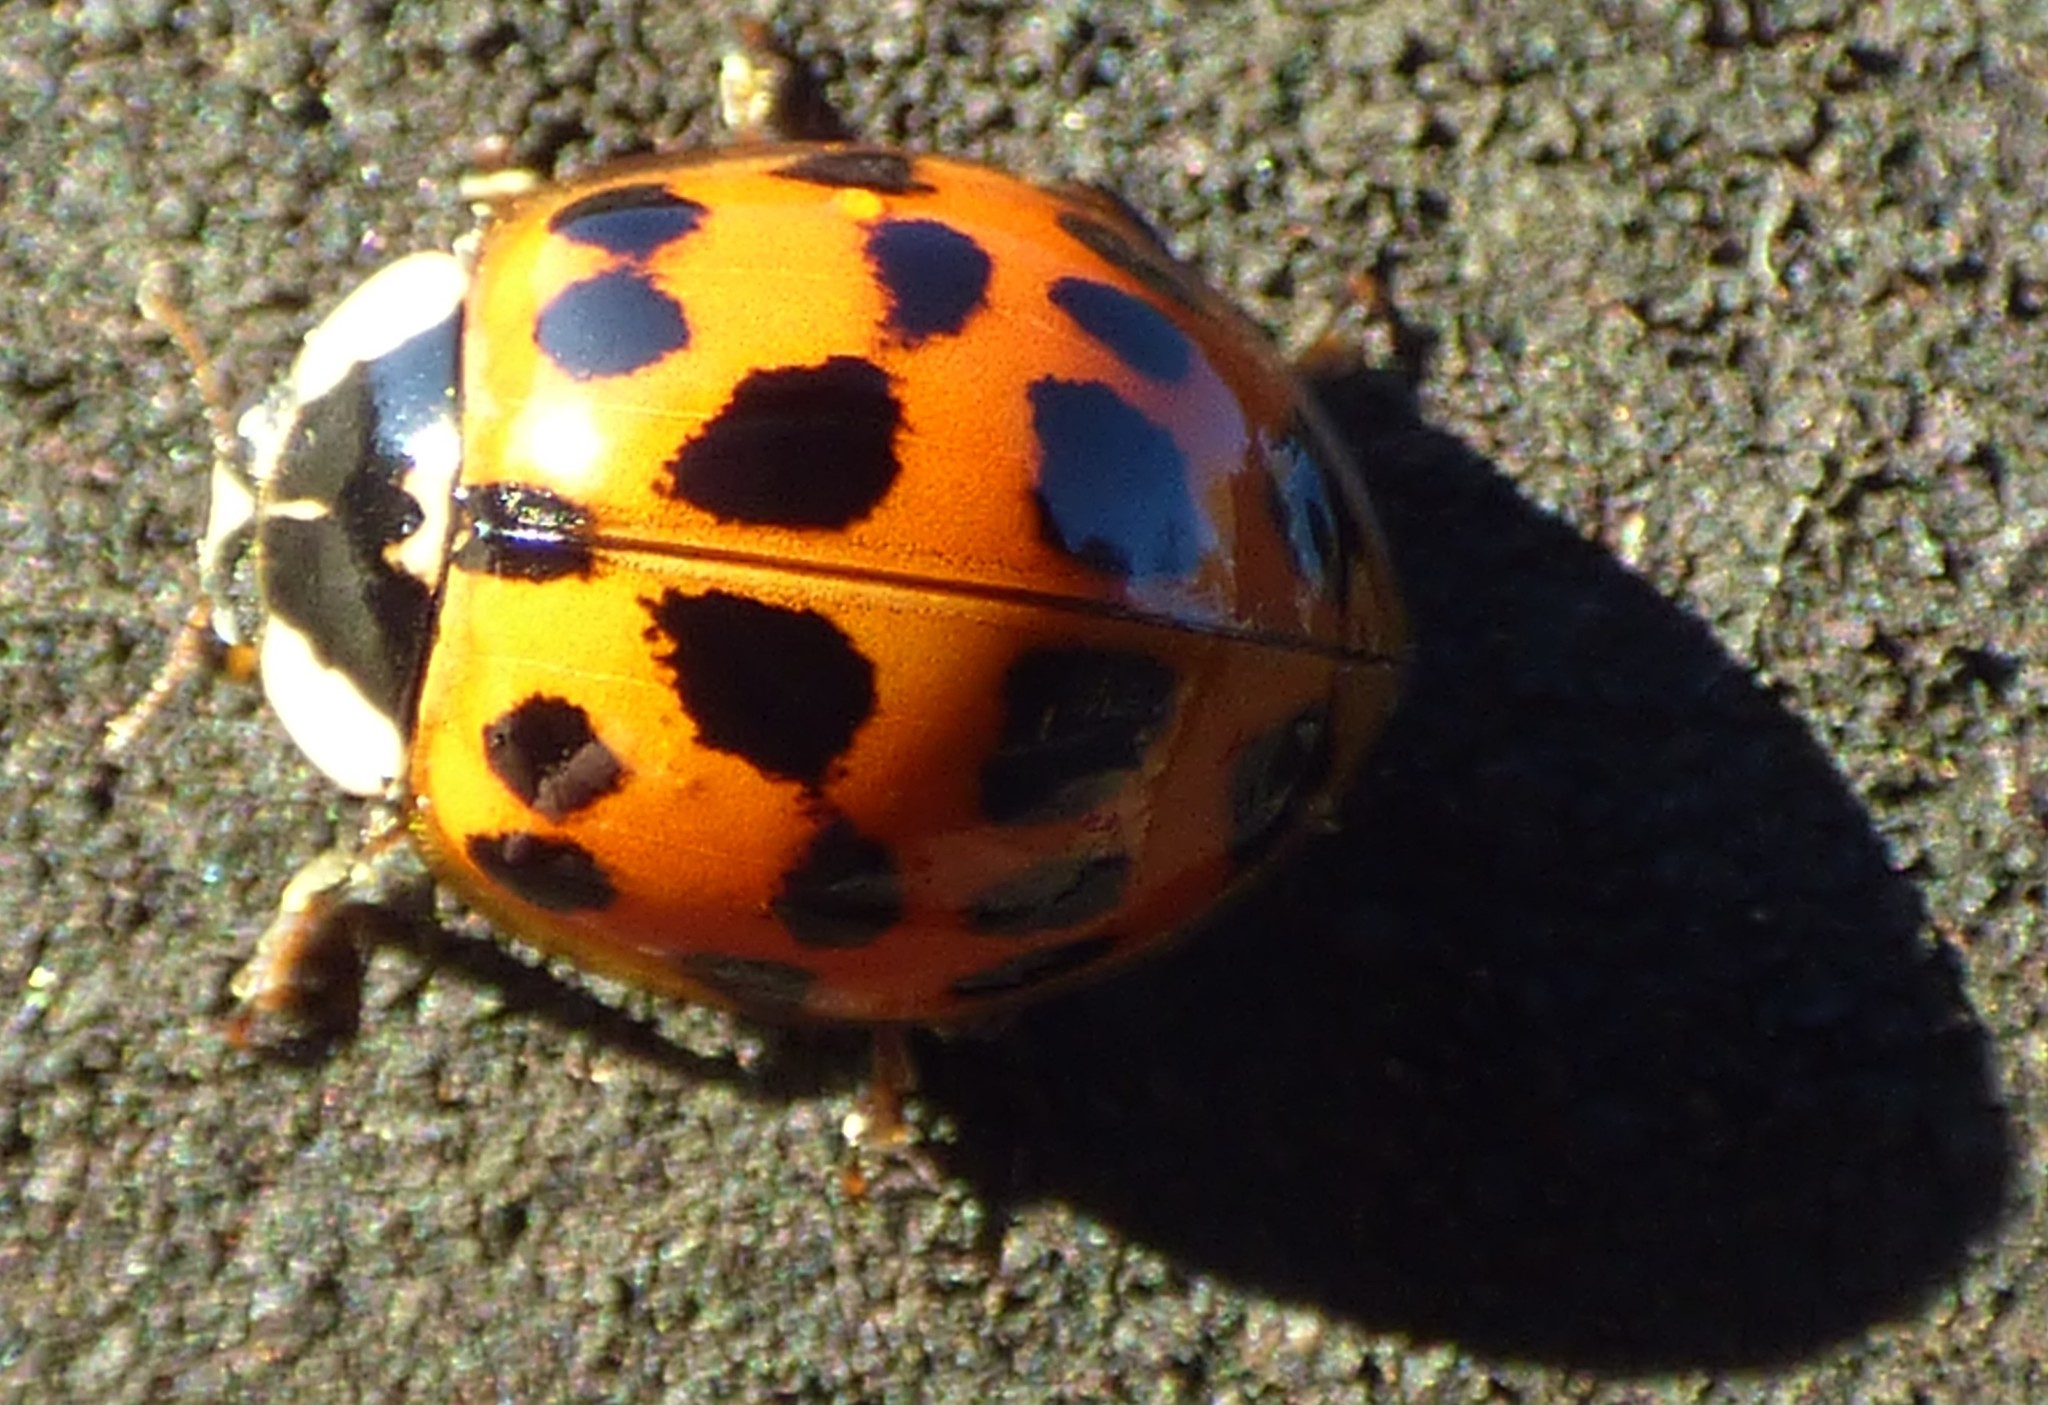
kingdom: Animalia
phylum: Arthropoda
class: Insecta
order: Coleoptera
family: Coccinellidae
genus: Harmonia
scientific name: Harmonia axyridis
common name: Harlequin ladybird
